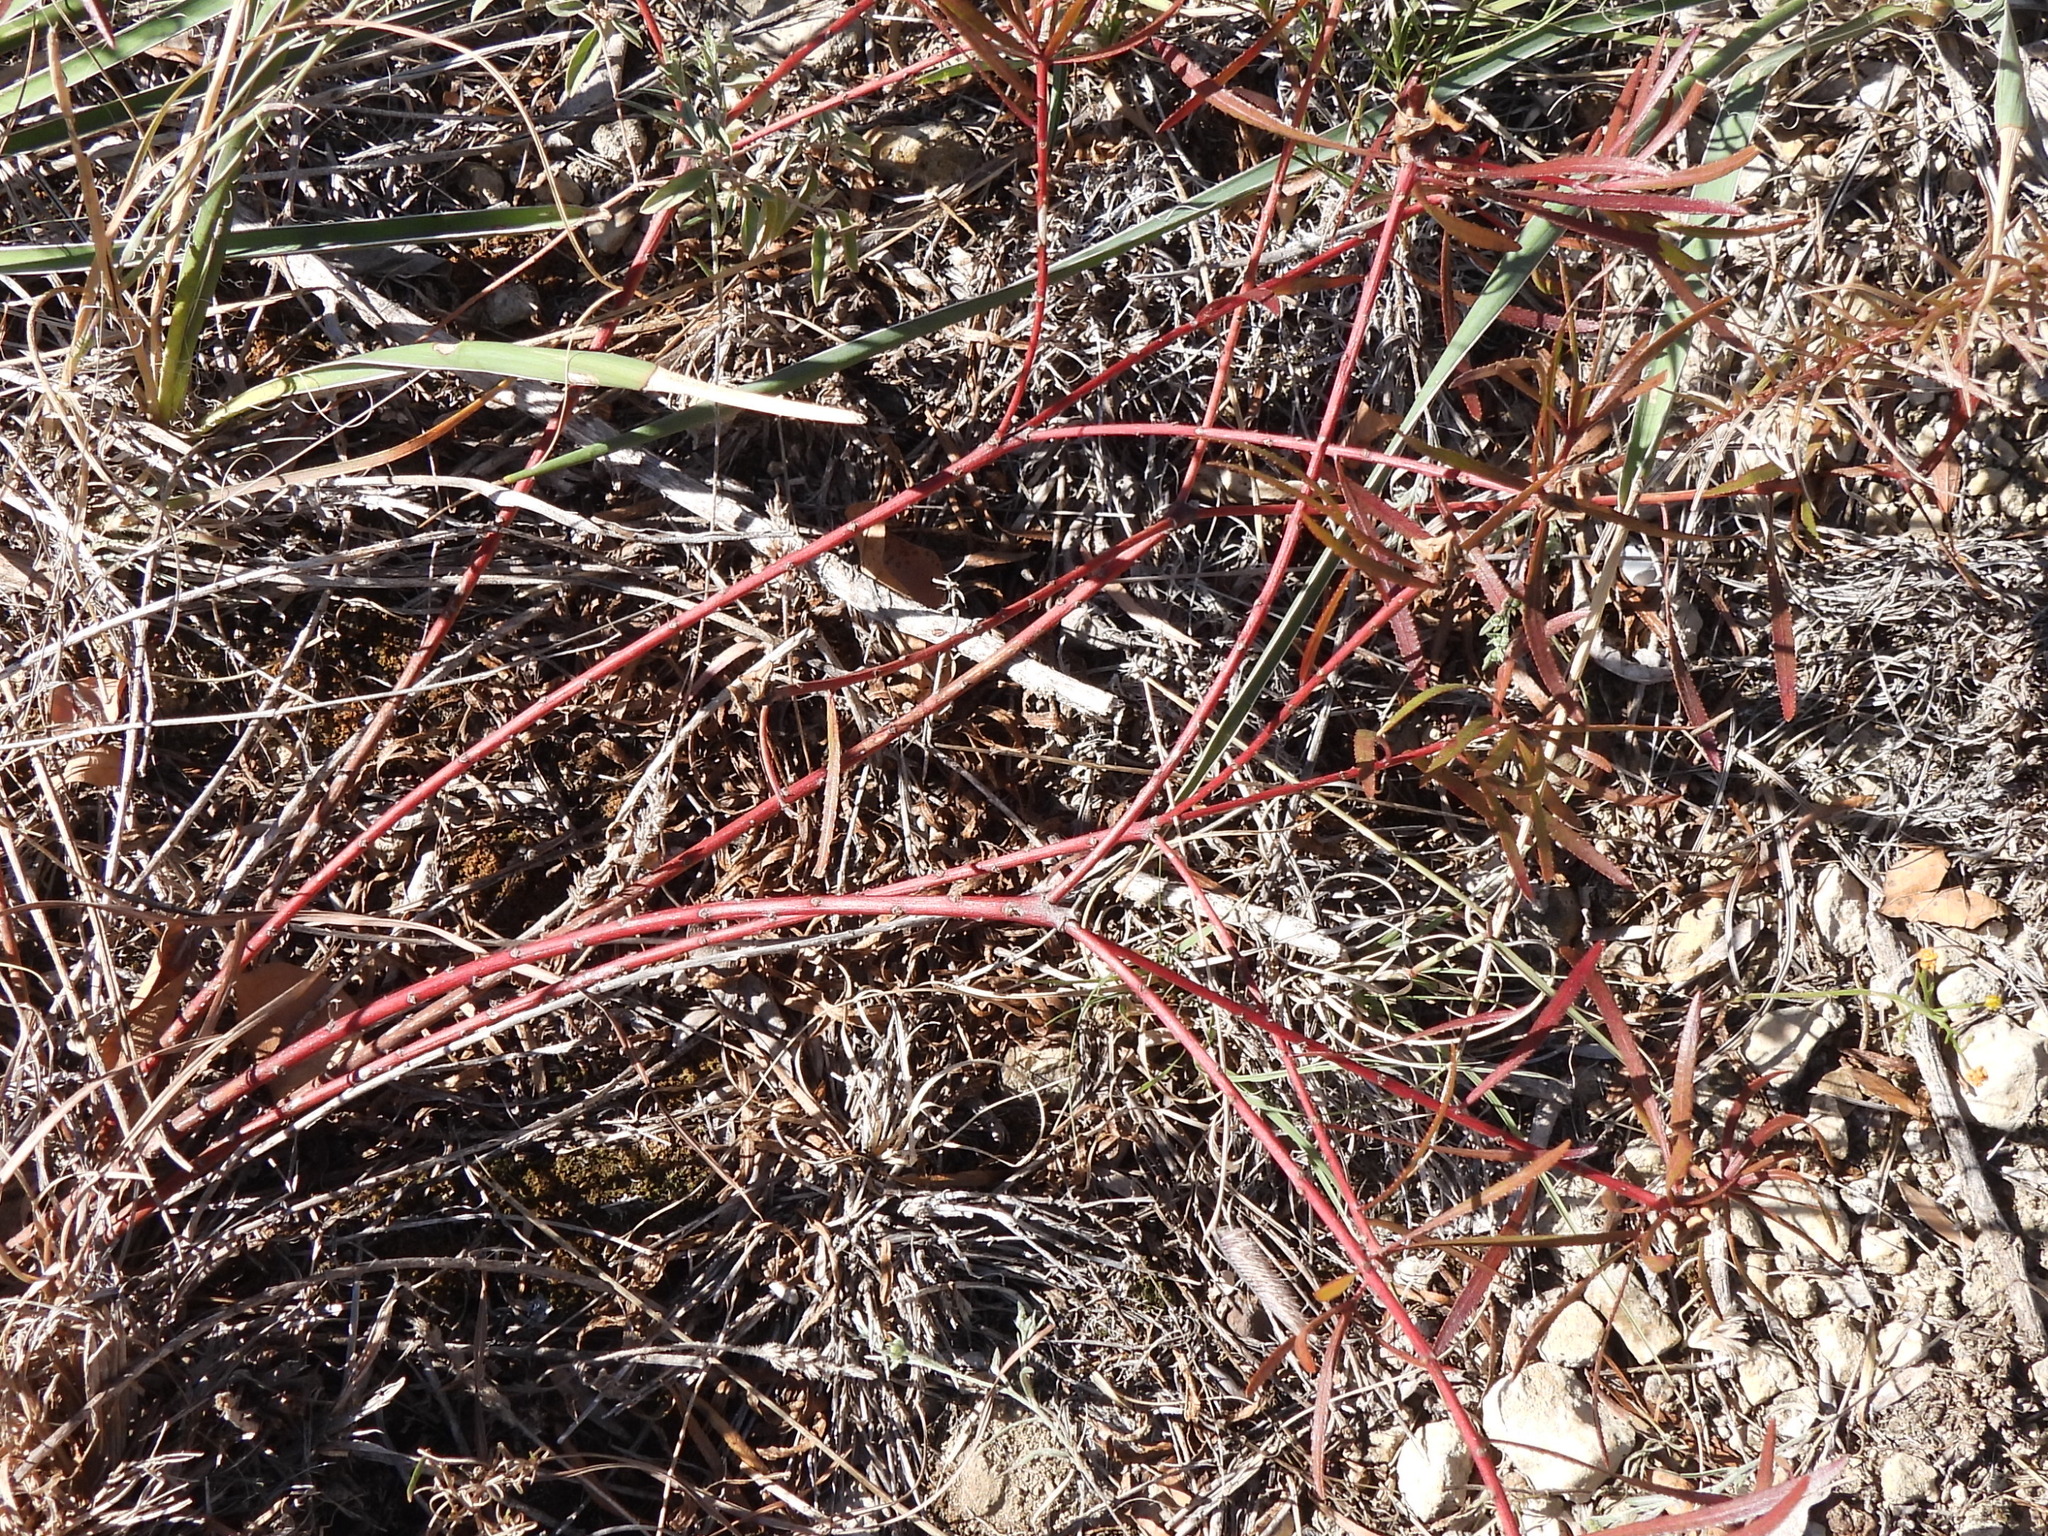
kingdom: Plantae
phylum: Tracheophyta
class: Magnoliopsida
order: Malpighiales
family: Euphorbiaceae
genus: Stillingia
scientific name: Stillingia texana
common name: Texas stillingia
